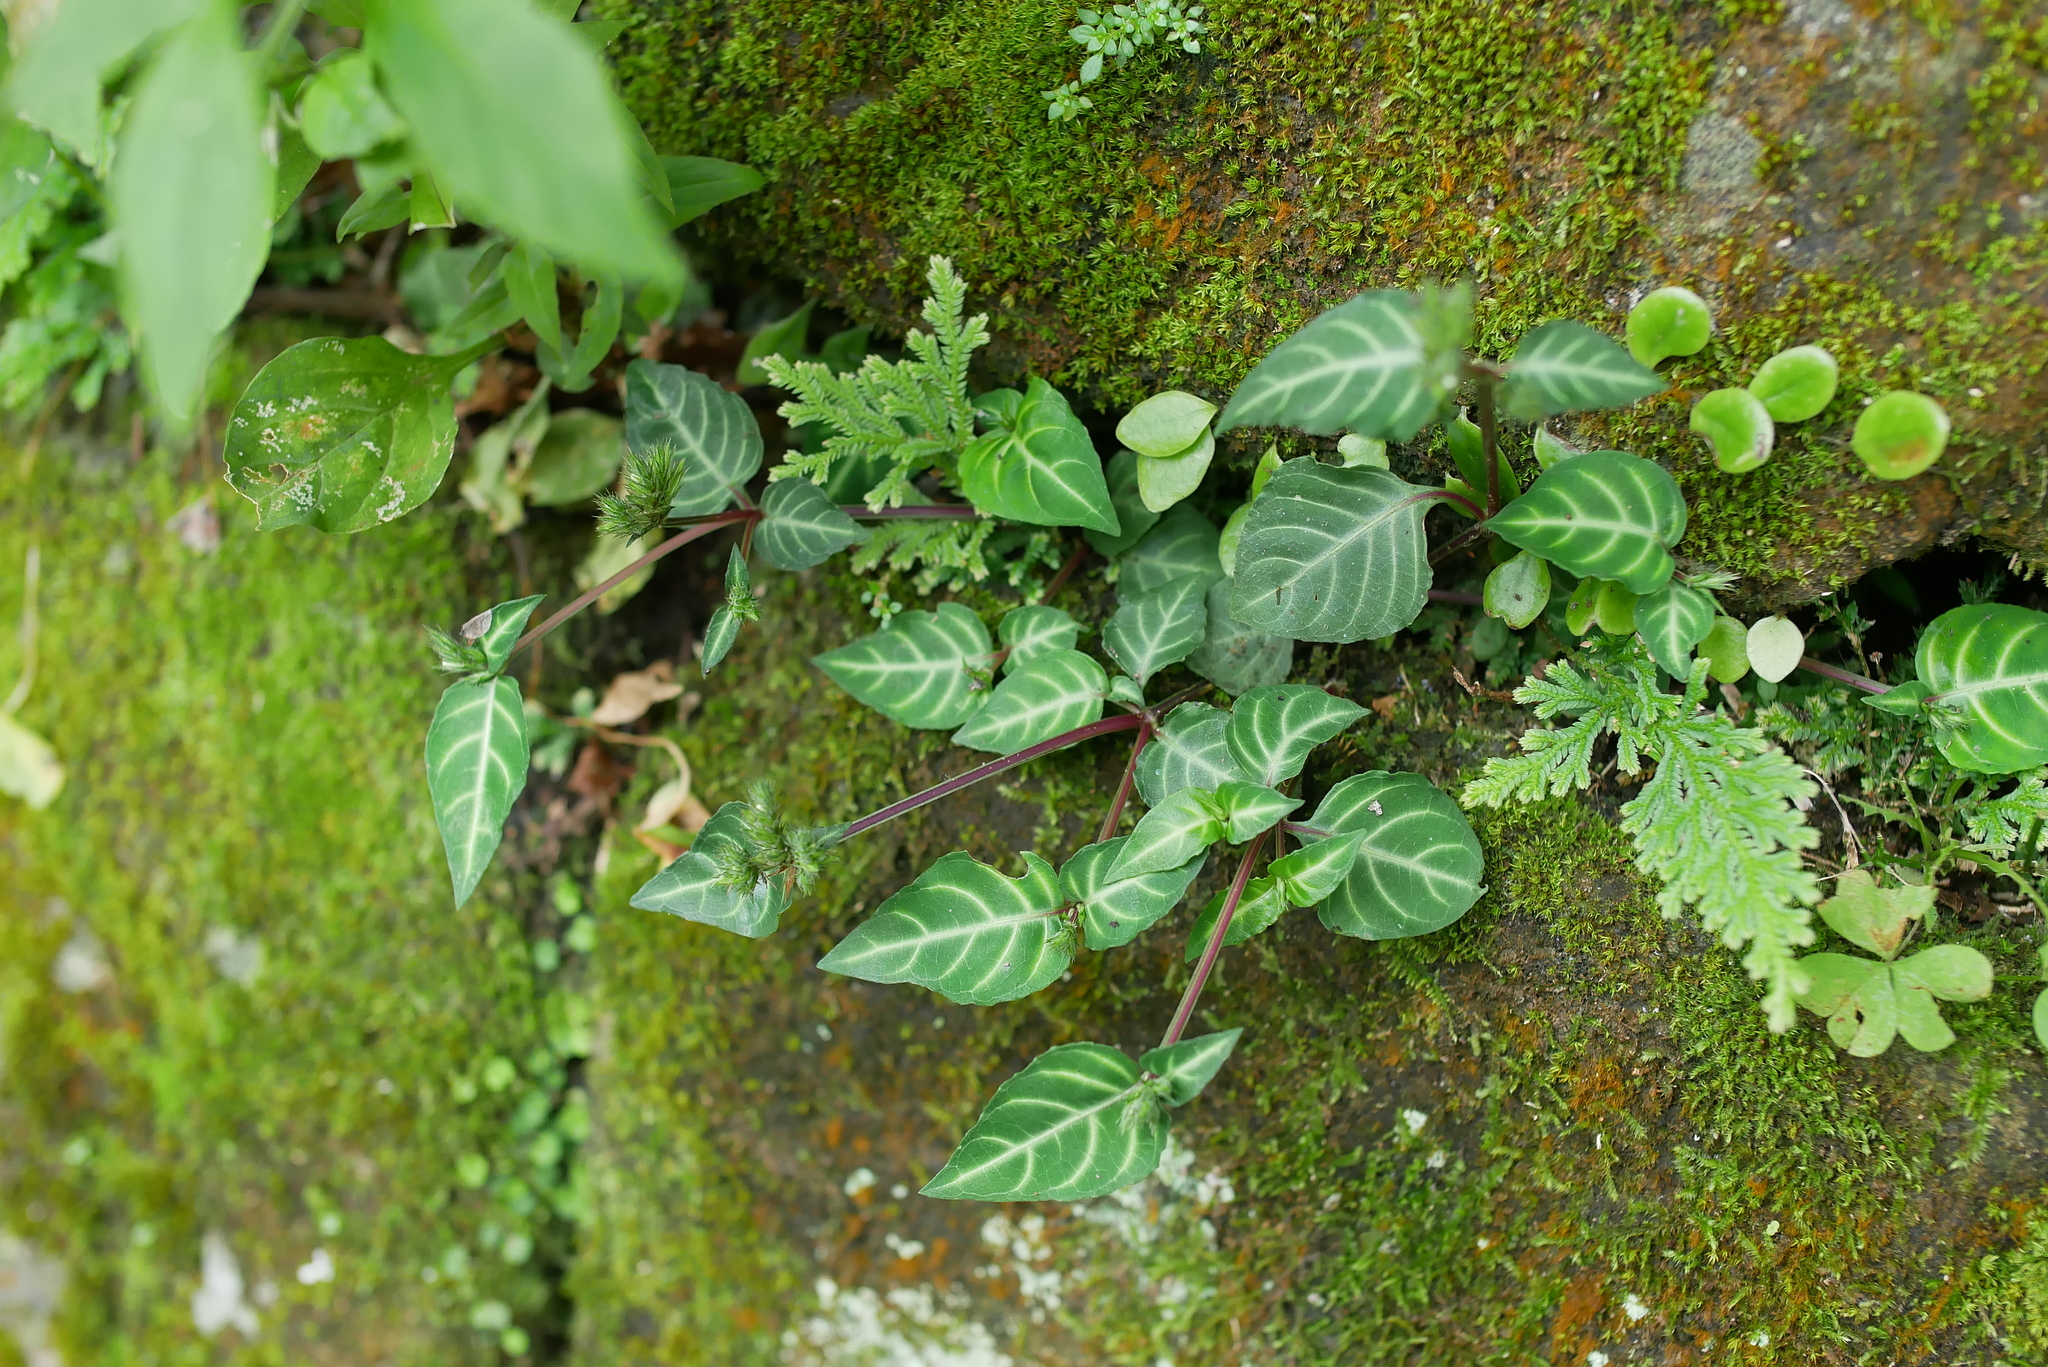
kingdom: Plantae
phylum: Tracheophyta
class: Magnoliopsida
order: Lamiales
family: Acanthaceae
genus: Lepidagathis
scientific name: Lepidagathis inaequalis
